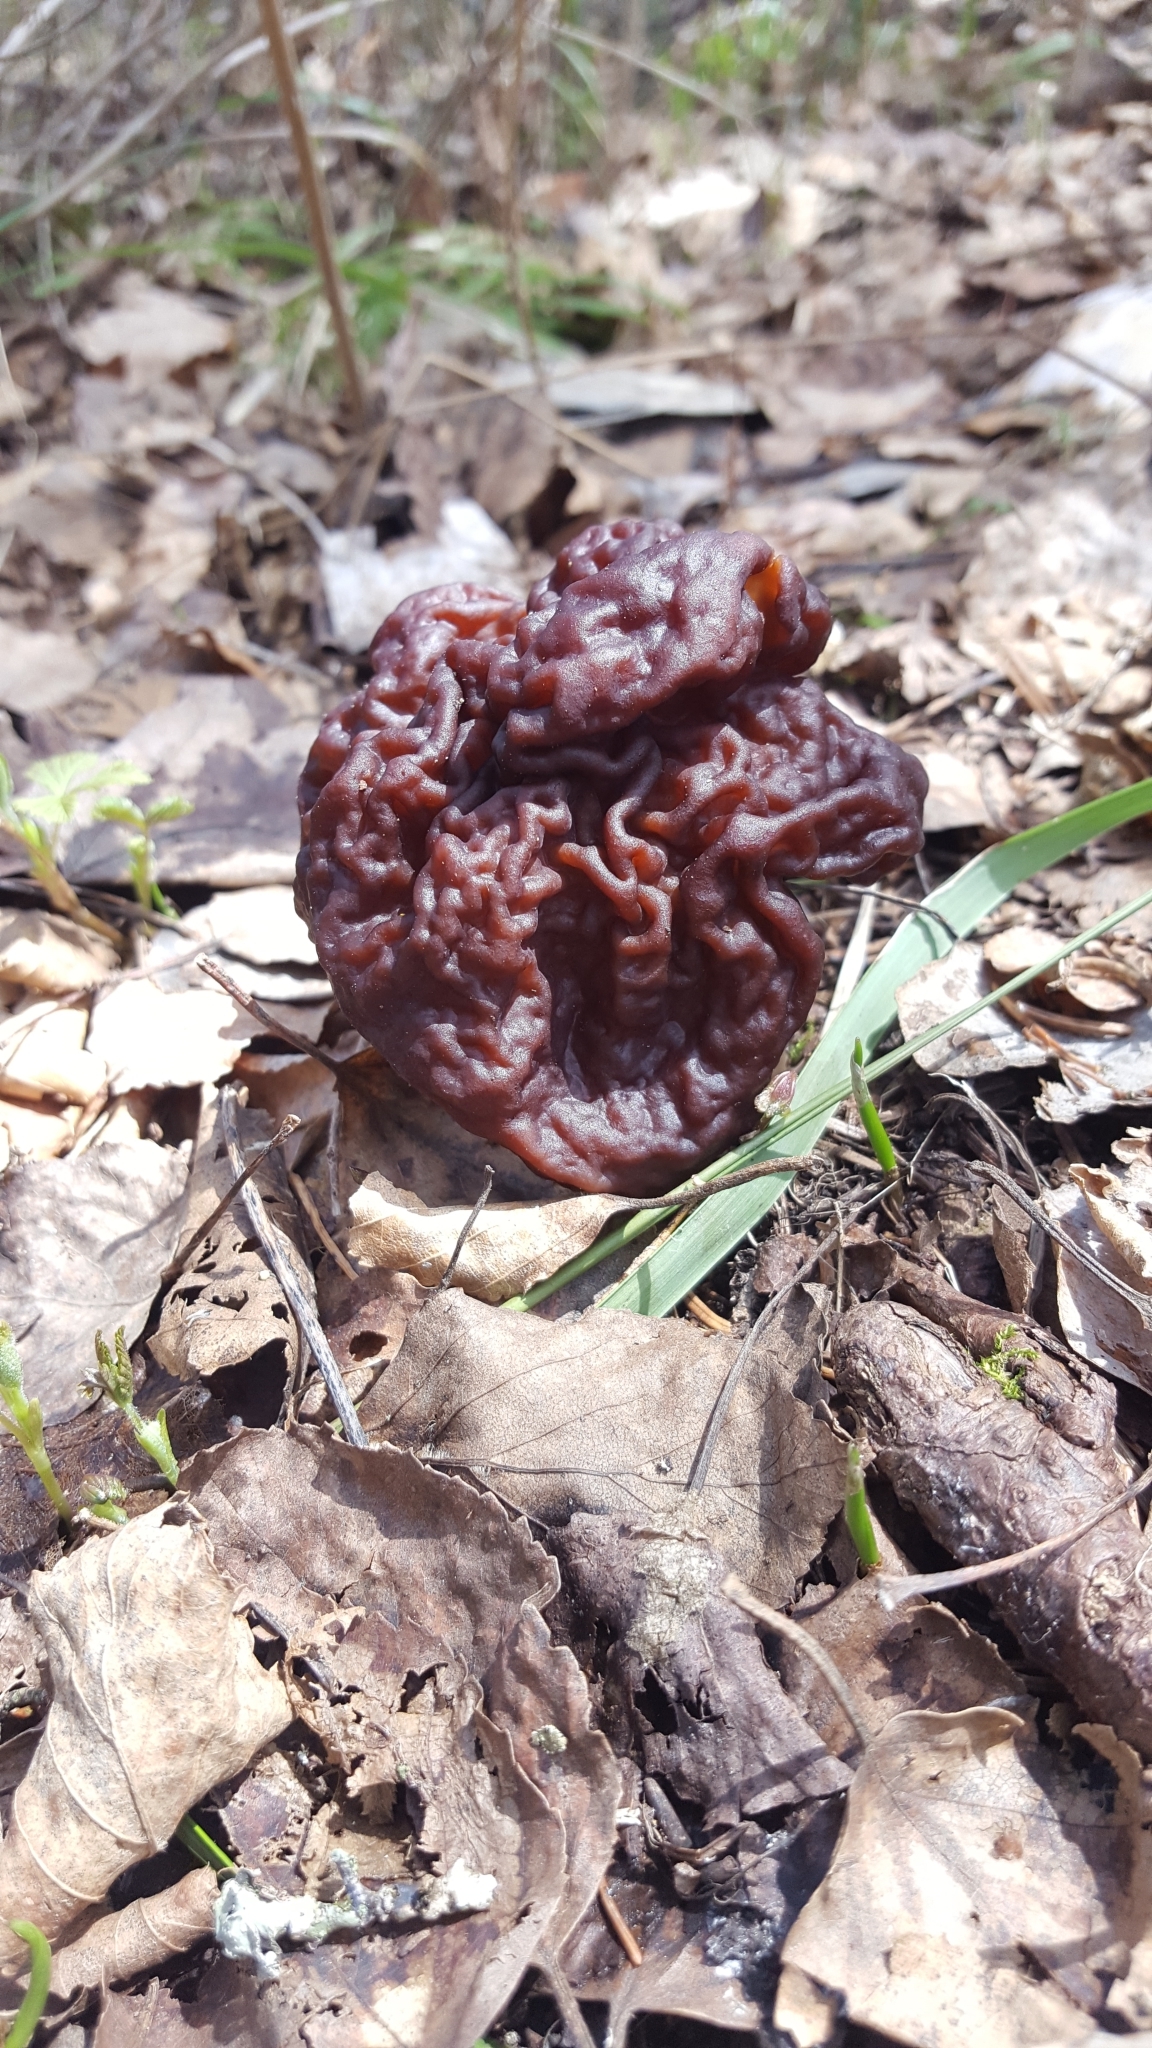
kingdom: Fungi
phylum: Ascomycota
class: Pezizomycetes
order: Pezizales
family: Discinaceae
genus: Gyromitra
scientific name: Gyromitra esculenta
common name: False morel
